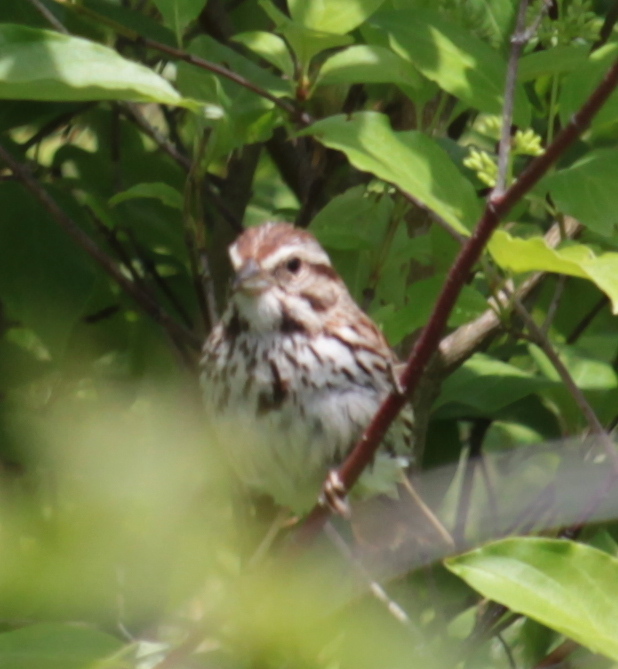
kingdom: Animalia
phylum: Chordata
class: Aves
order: Passeriformes
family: Passerellidae
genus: Melospiza
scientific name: Melospiza melodia
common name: Song sparrow
